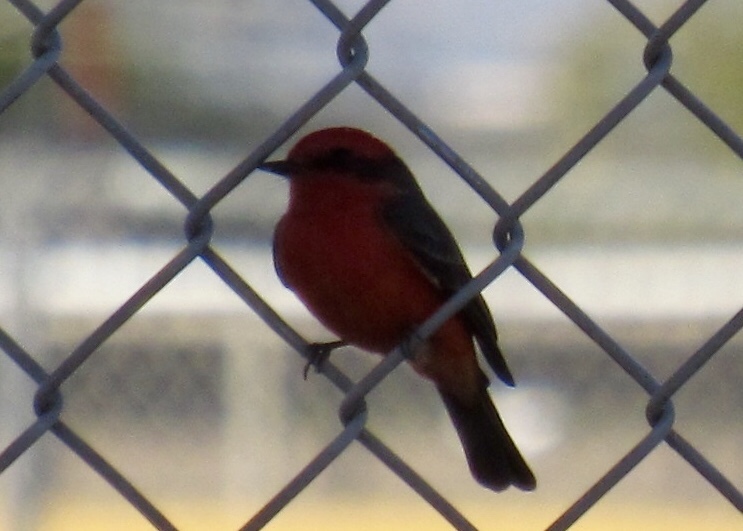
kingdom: Animalia
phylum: Chordata
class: Aves
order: Passeriformes
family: Tyrannidae
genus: Pyrocephalus
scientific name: Pyrocephalus rubinus
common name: Vermilion flycatcher
